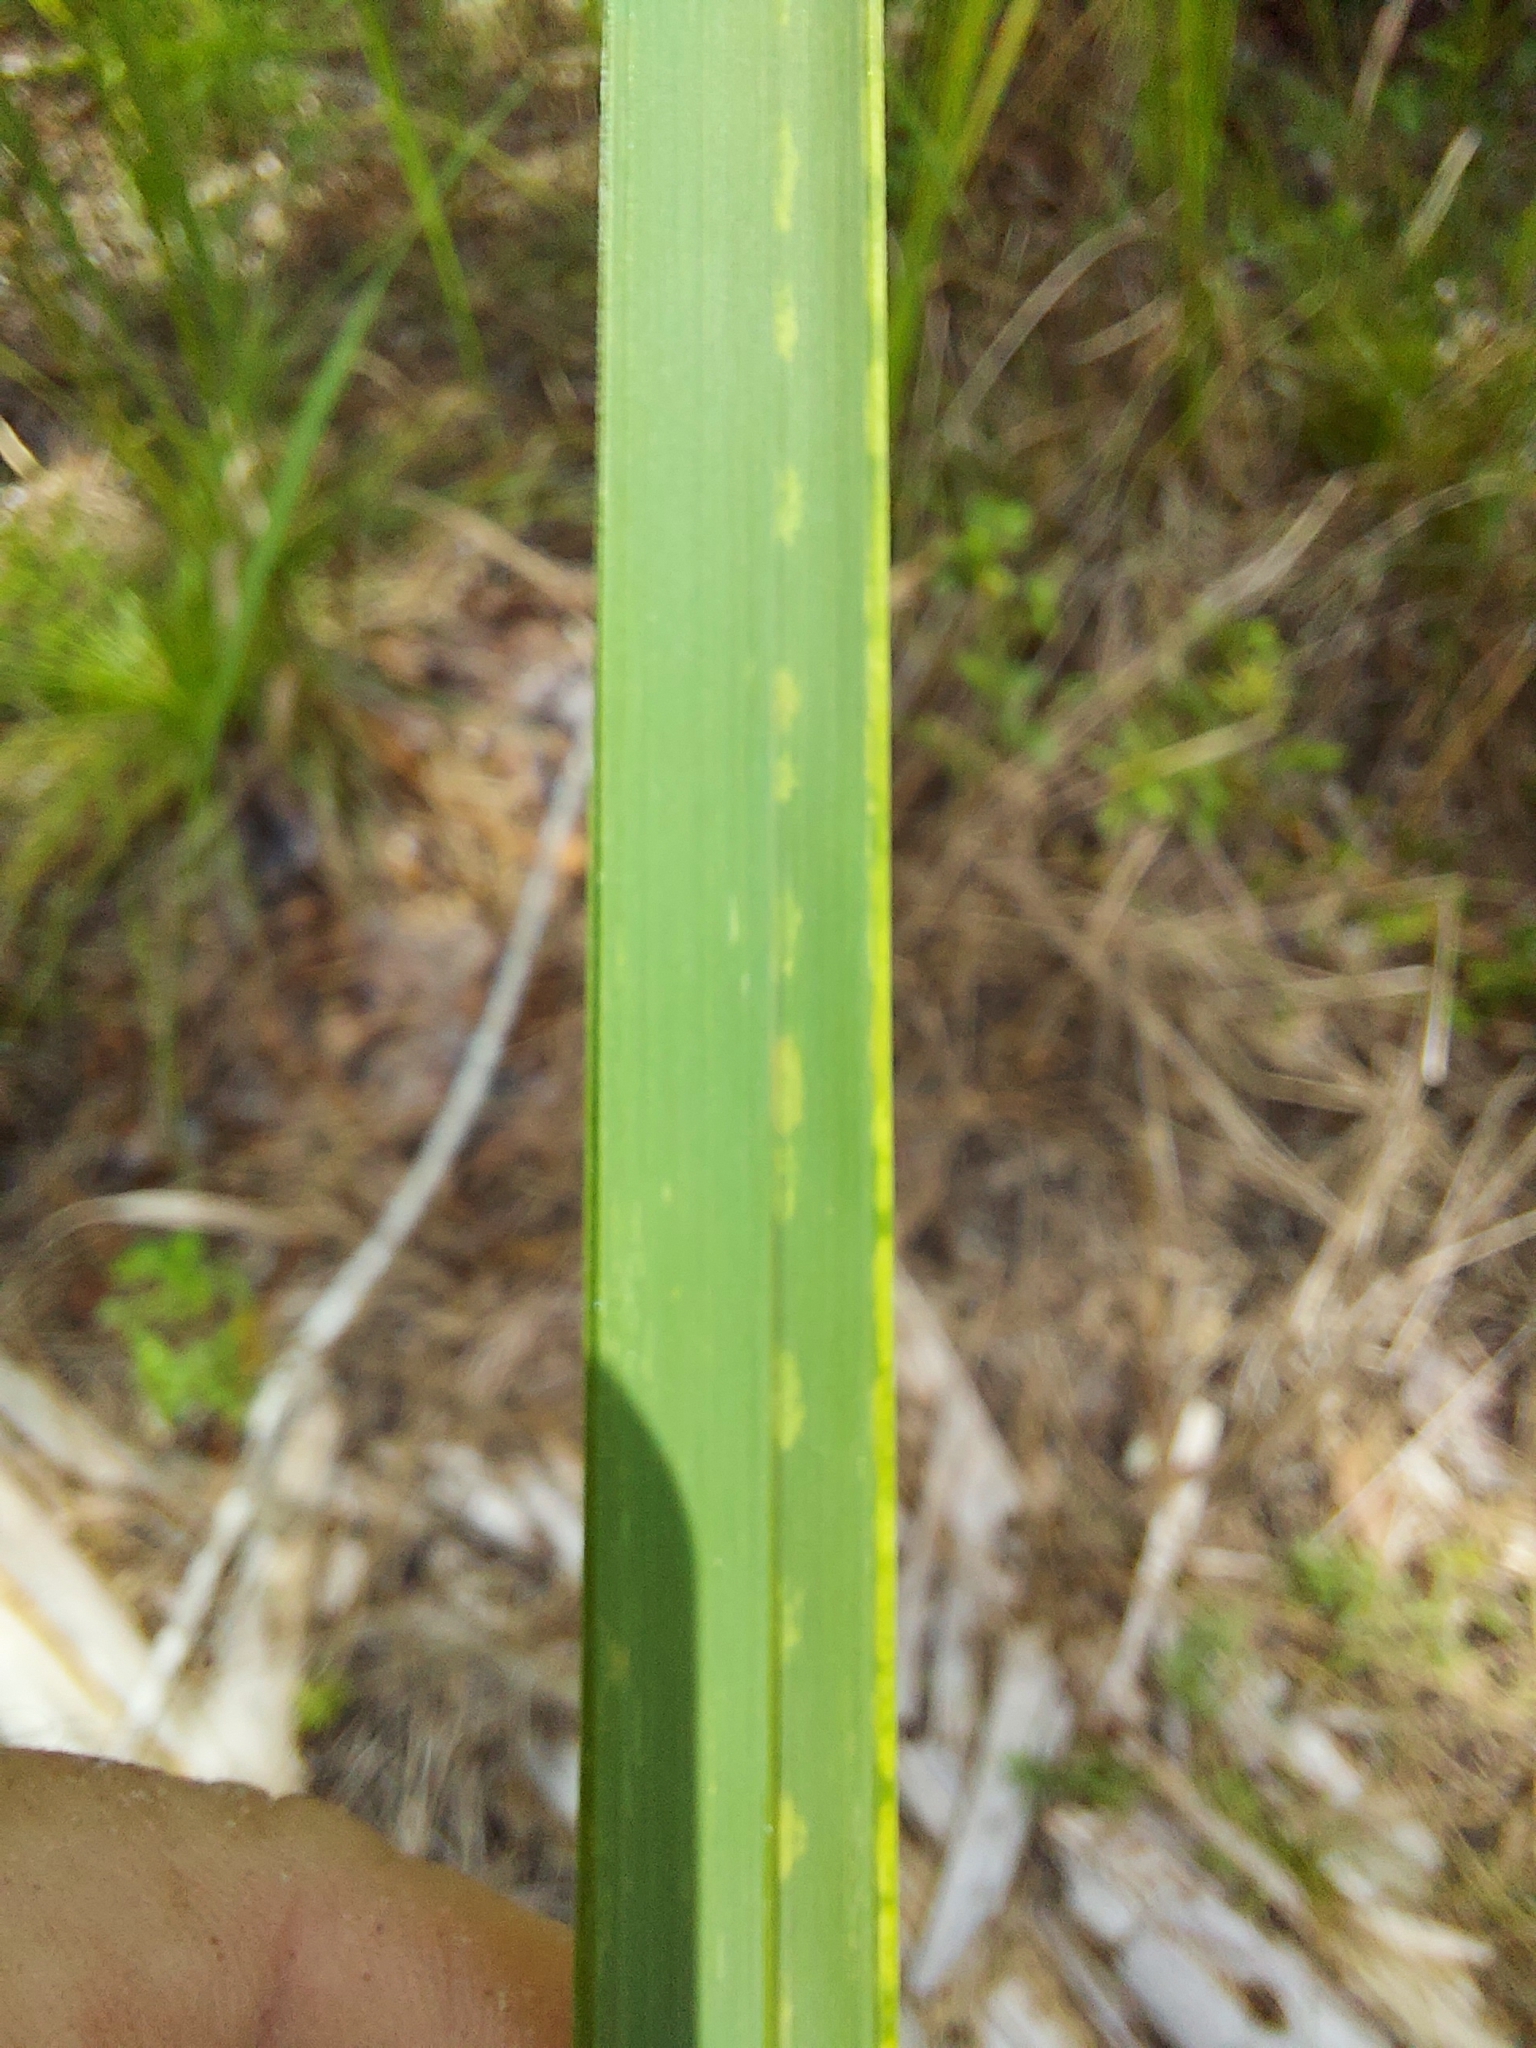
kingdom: Plantae
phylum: Tracheophyta
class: Liliopsida
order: Poales
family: Poaceae
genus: Imperata
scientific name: Imperata cylindrica
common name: Cogongrass
